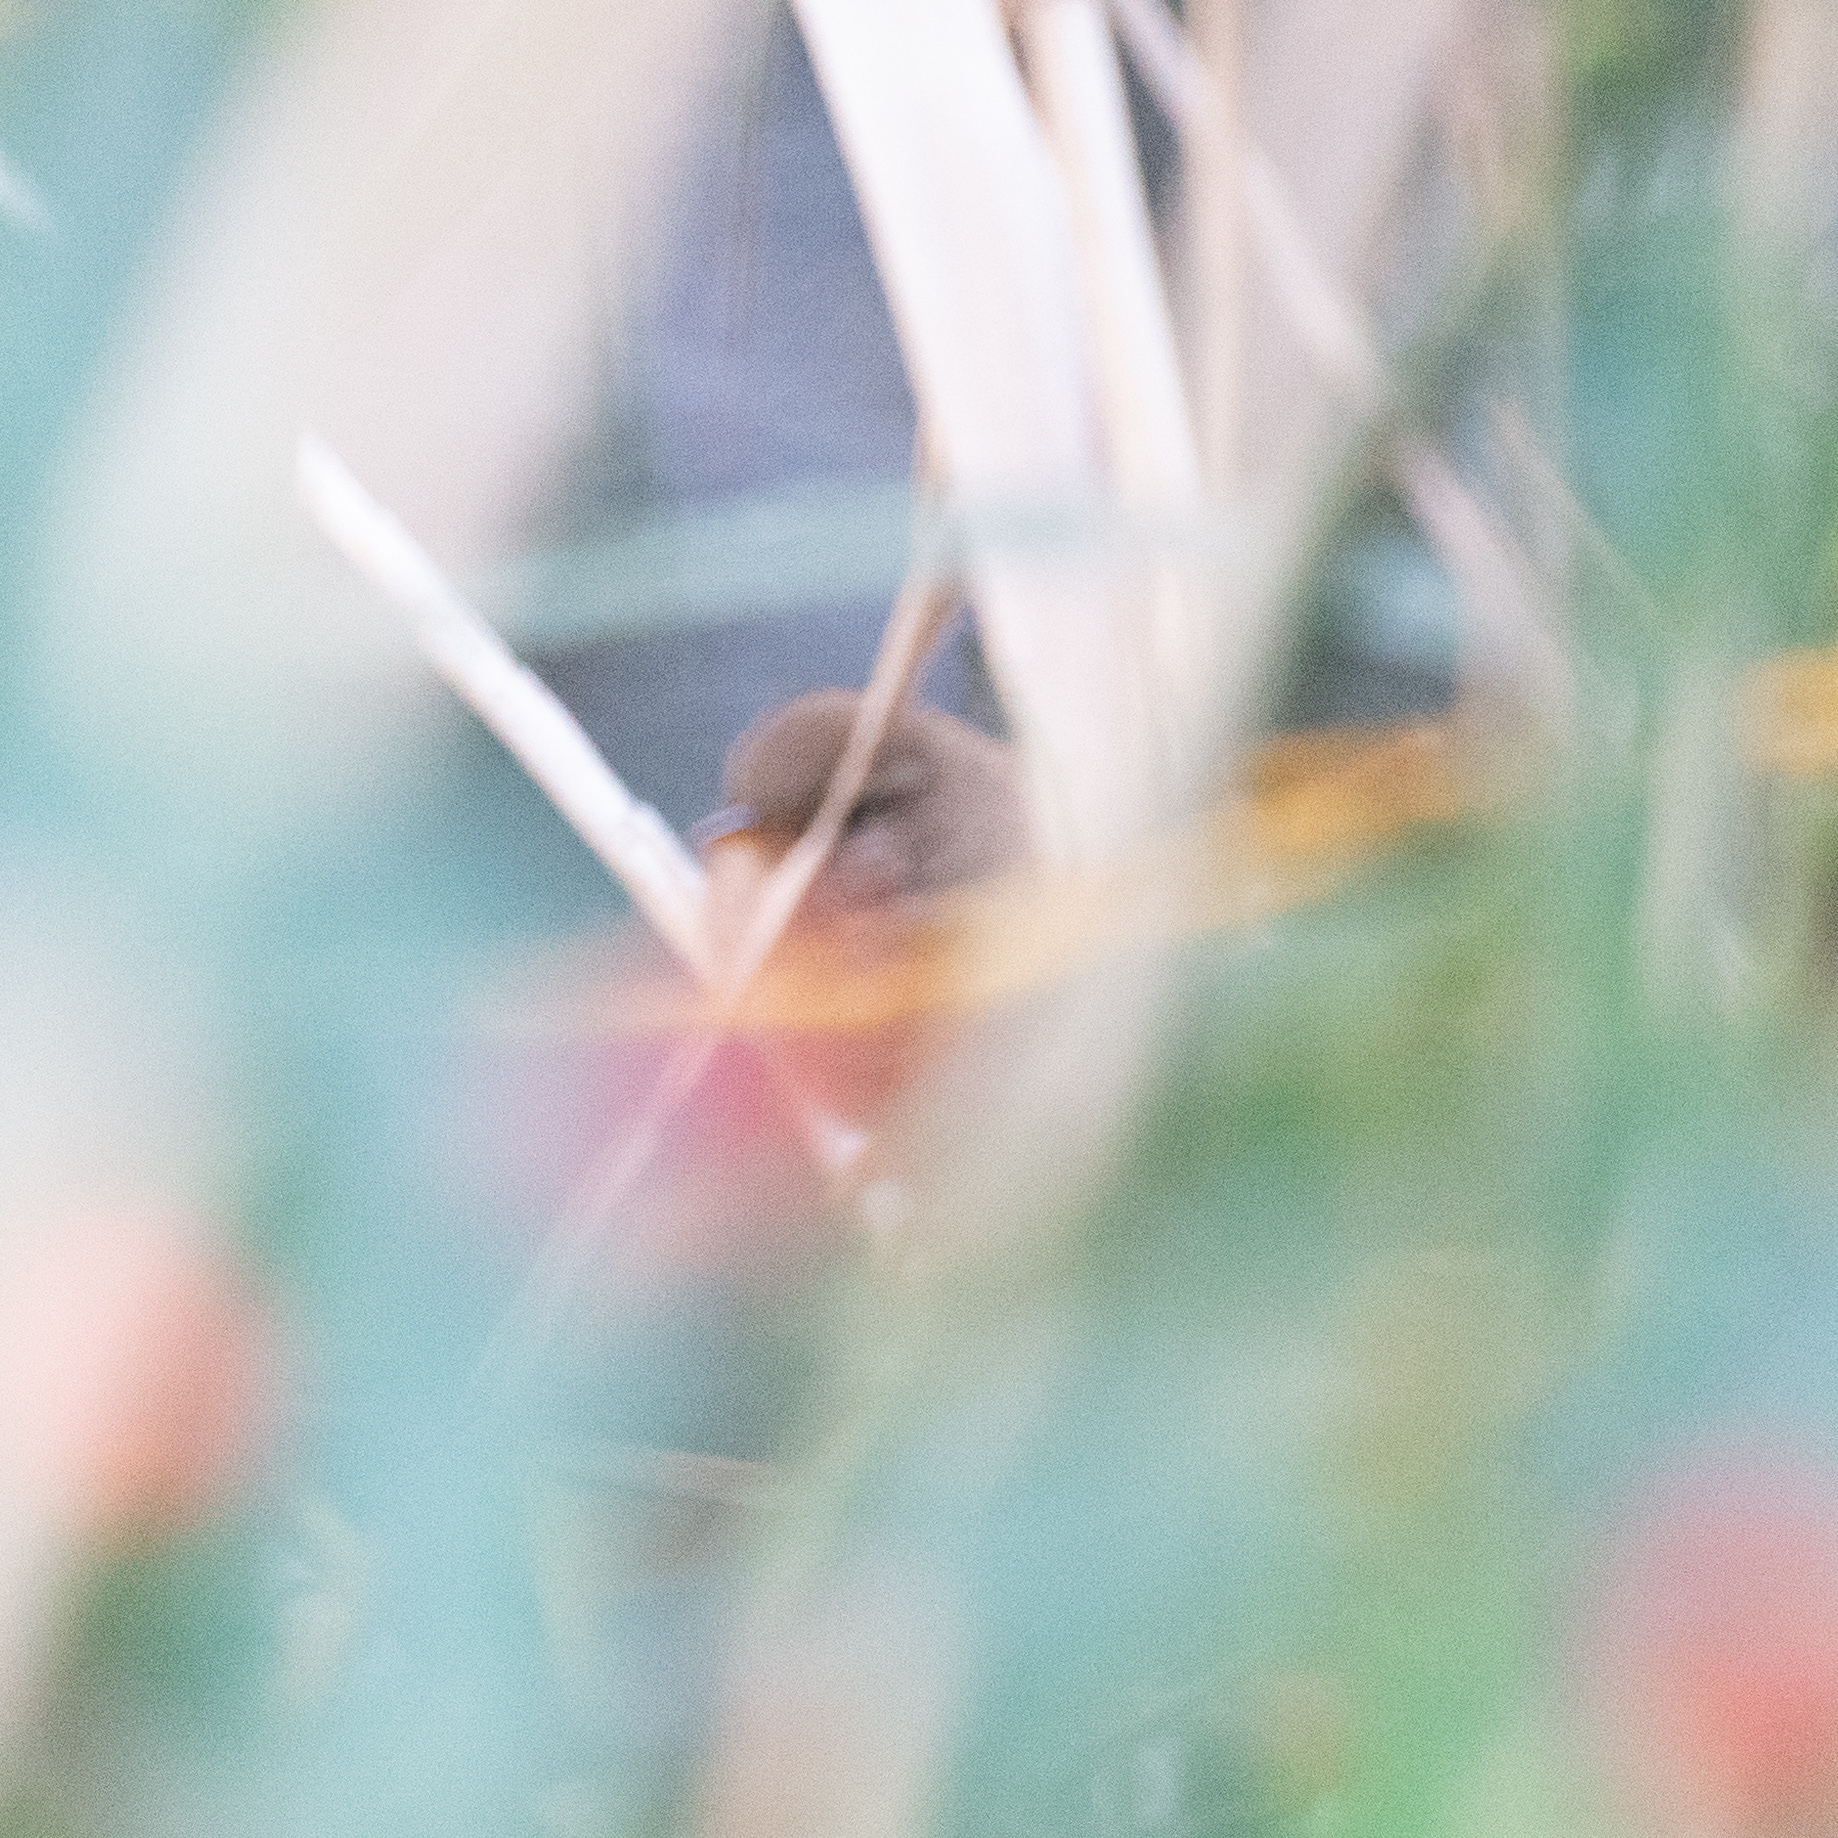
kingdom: Animalia
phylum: Chordata
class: Aves
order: Passeriformes
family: Troglodytidae
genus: Troglodytes
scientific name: Troglodytes troglodytes
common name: Eurasian wren
